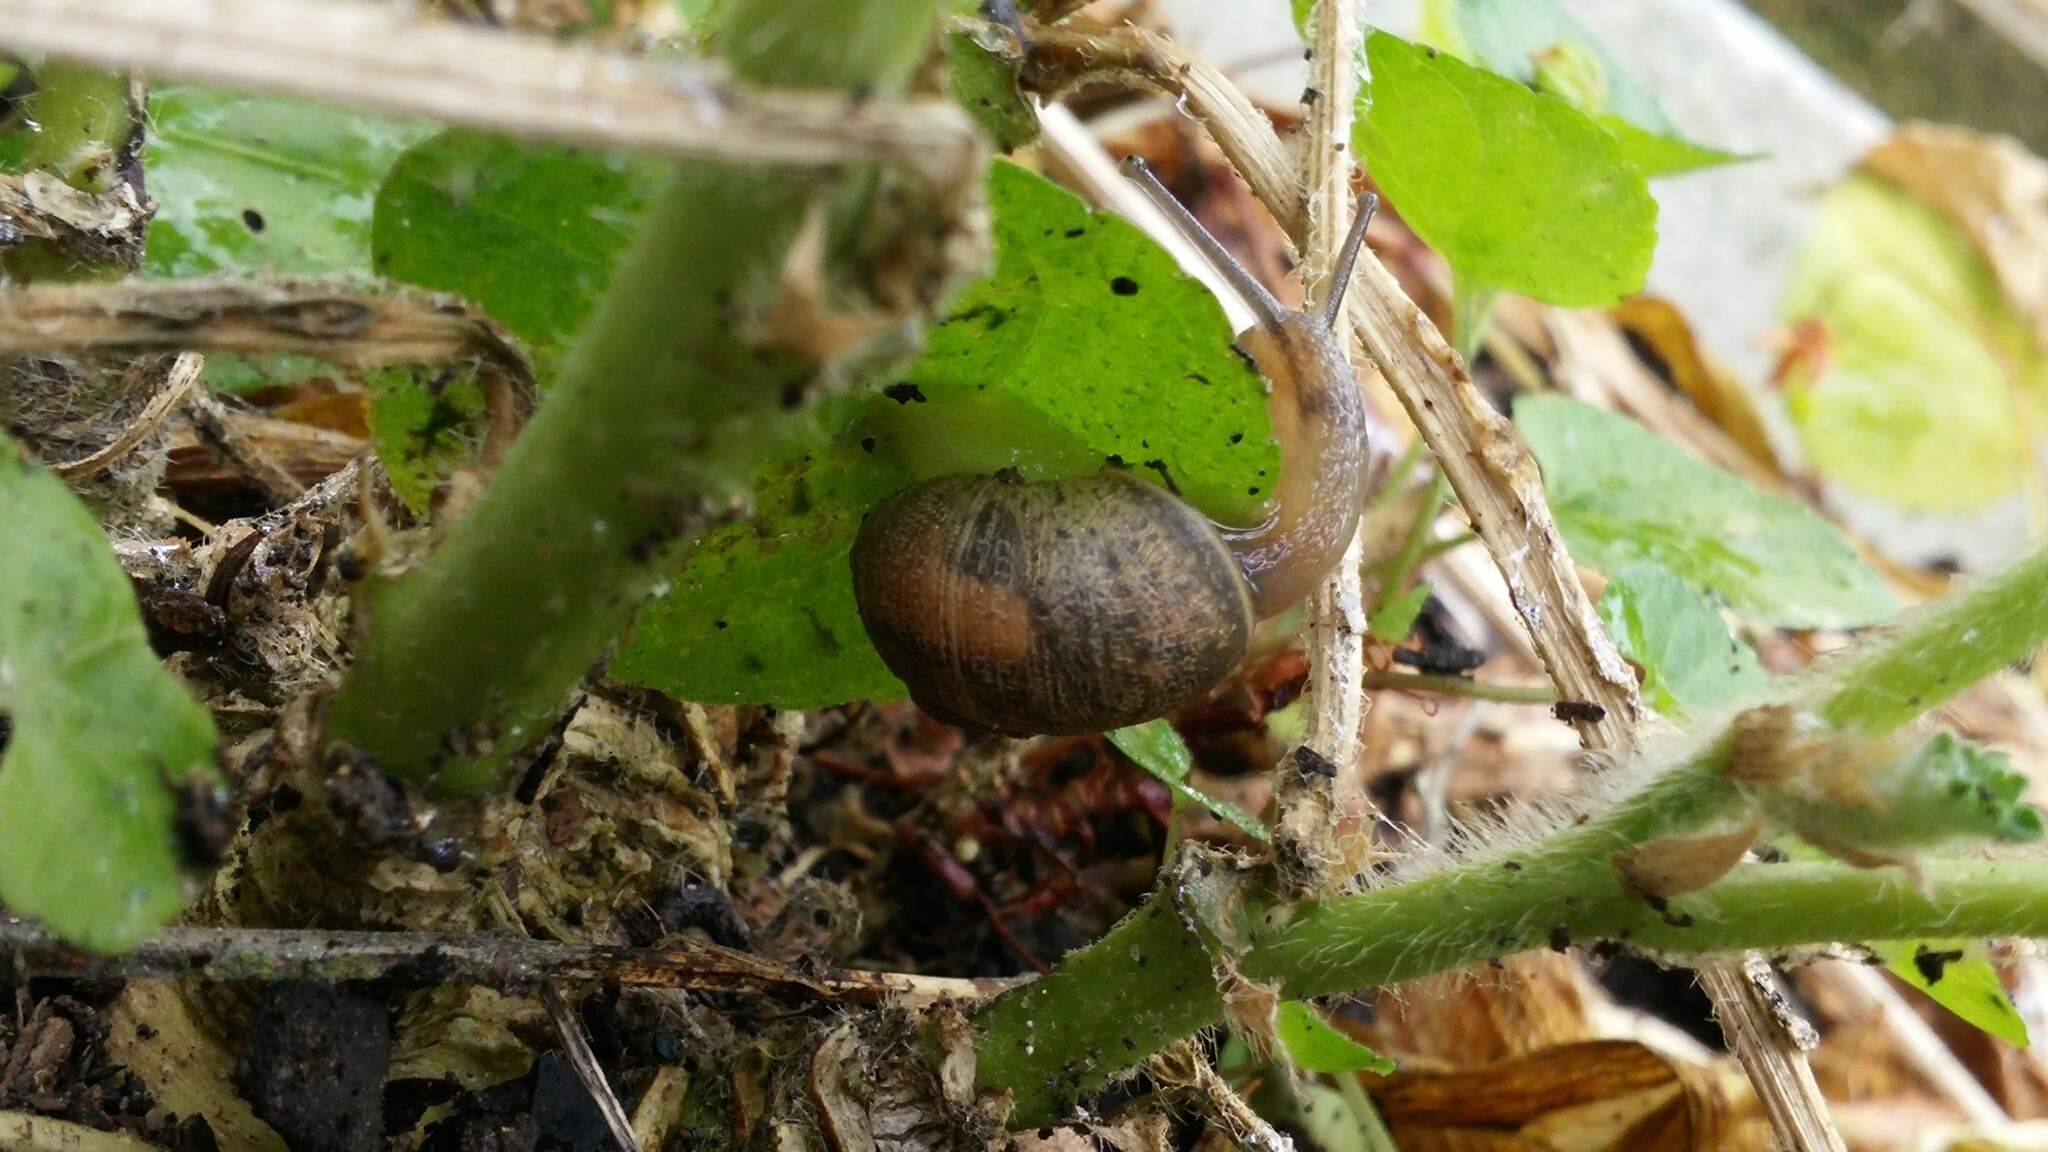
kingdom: Animalia
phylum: Mollusca
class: Gastropoda
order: Stylommatophora
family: Helicidae
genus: Cornu
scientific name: Cornu aspersum
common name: Brown garden snail
